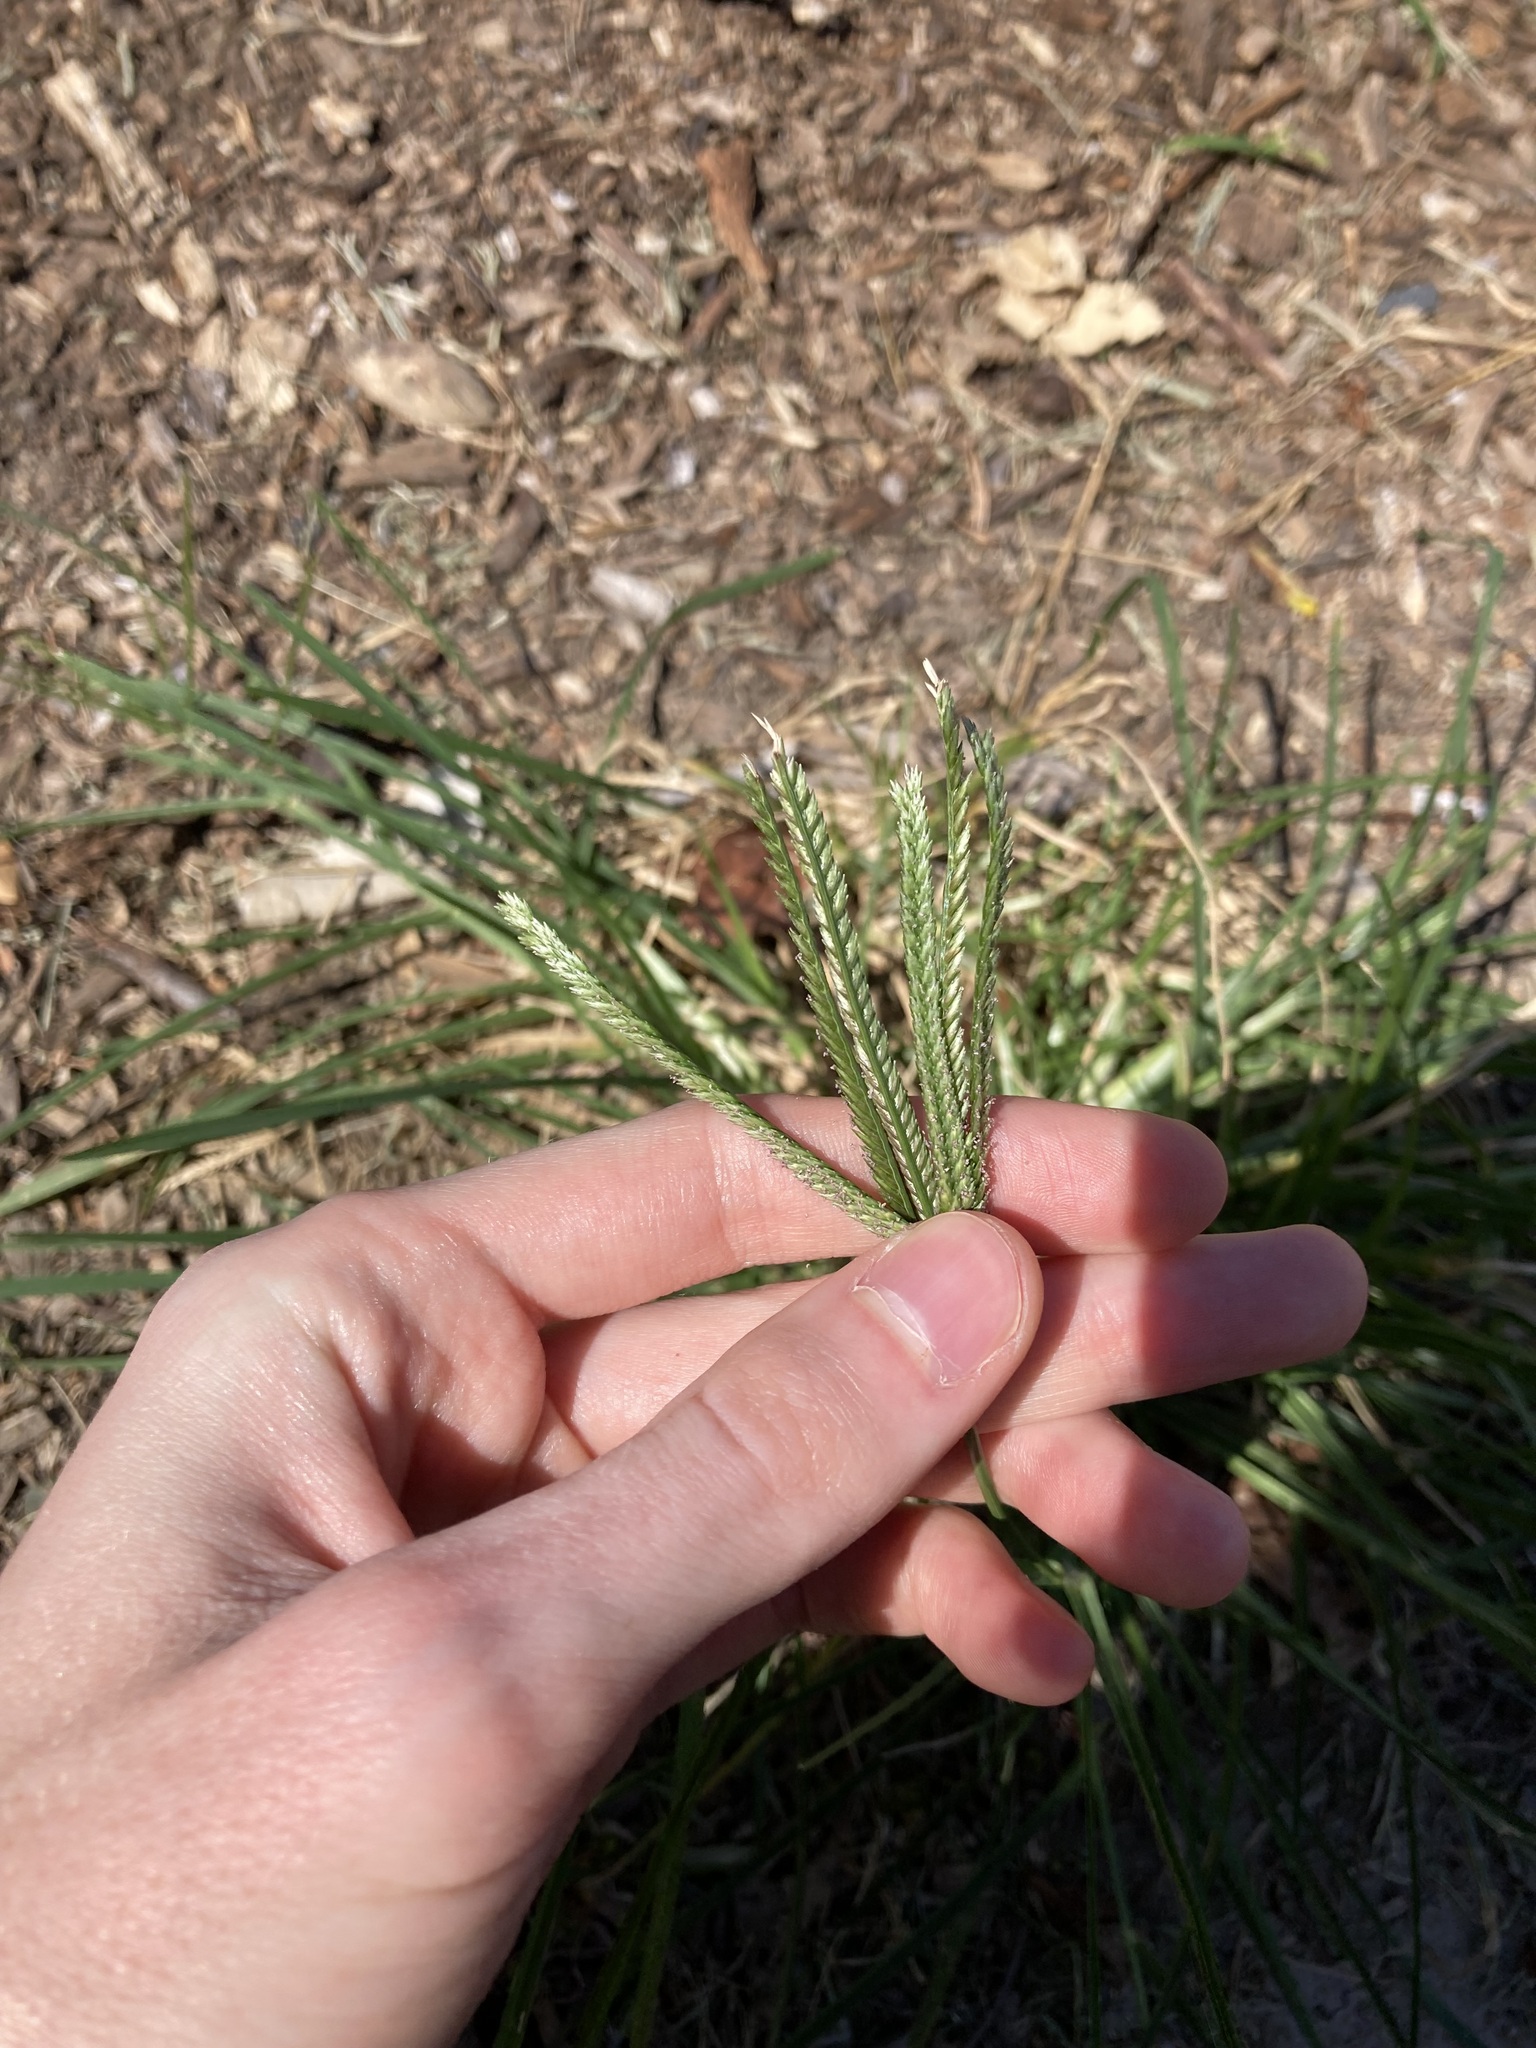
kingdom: Plantae
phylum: Tracheophyta
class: Liliopsida
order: Poales
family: Poaceae
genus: Eleusine
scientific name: Eleusine indica
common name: Yard-grass
